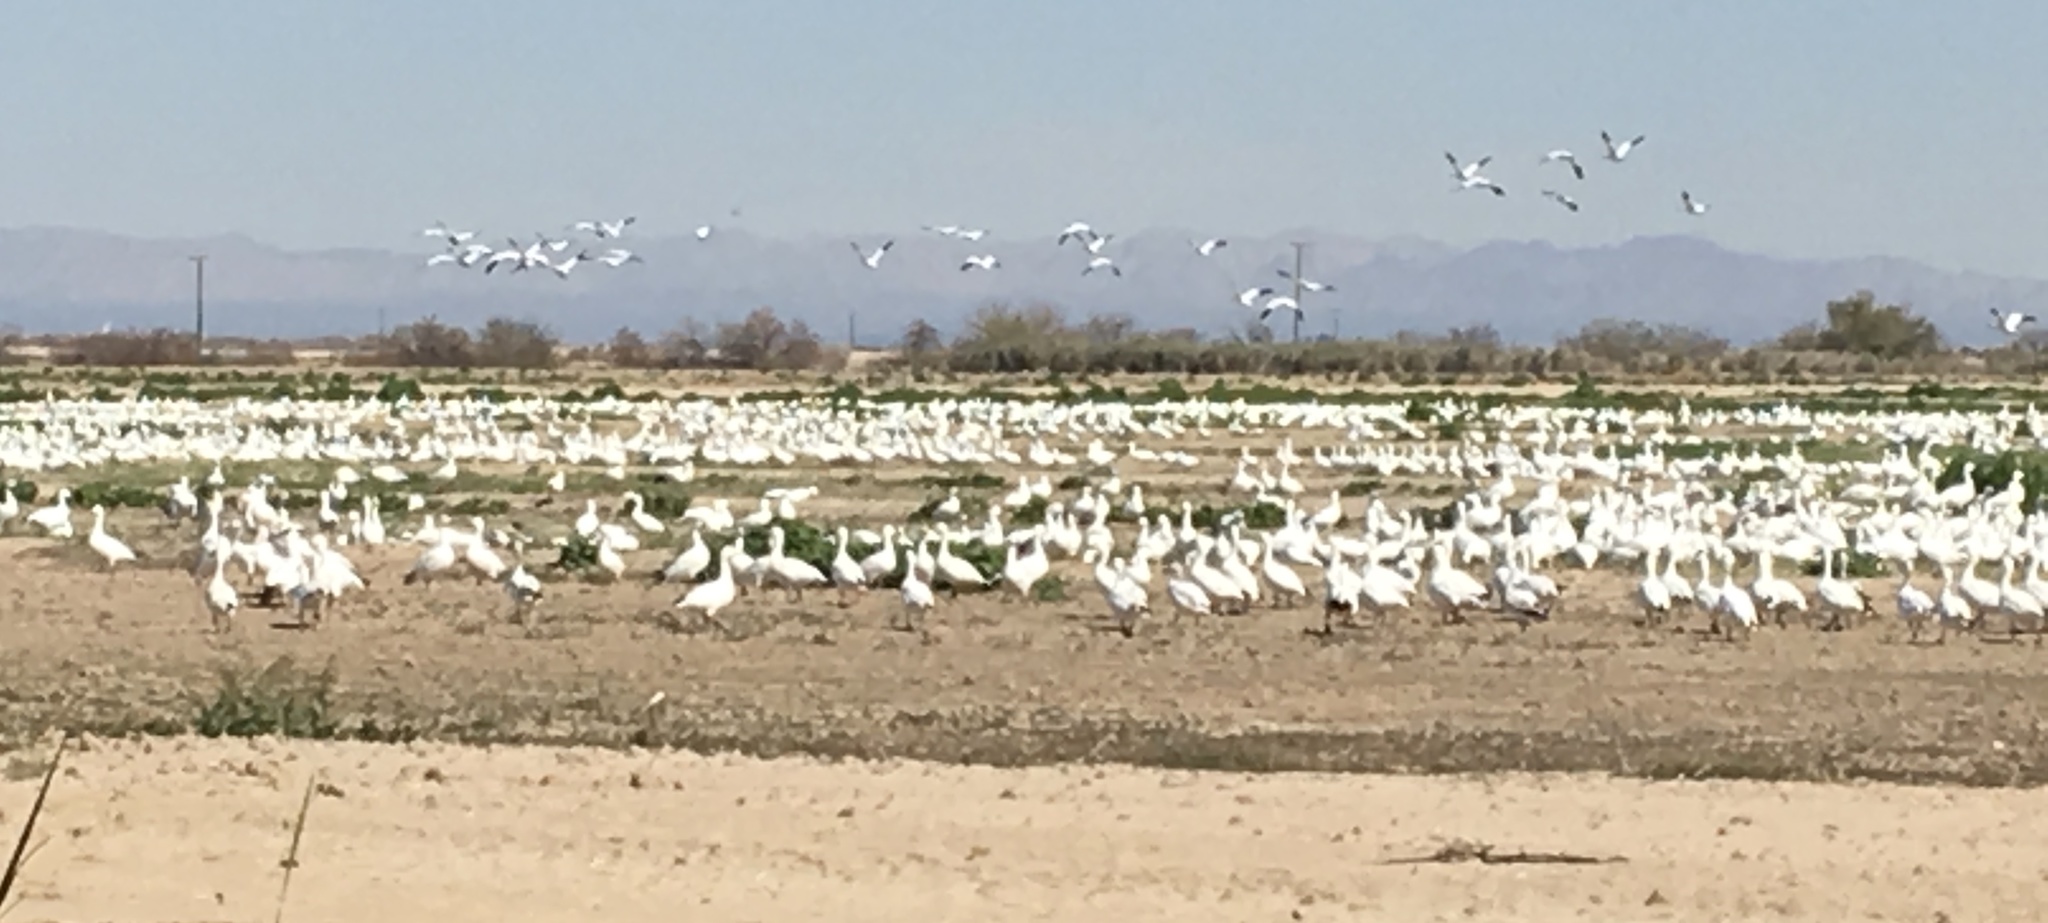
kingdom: Animalia
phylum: Chordata
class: Aves
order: Anseriformes
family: Anatidae
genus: Anser
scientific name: Anser caerulescens
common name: Snow goose
